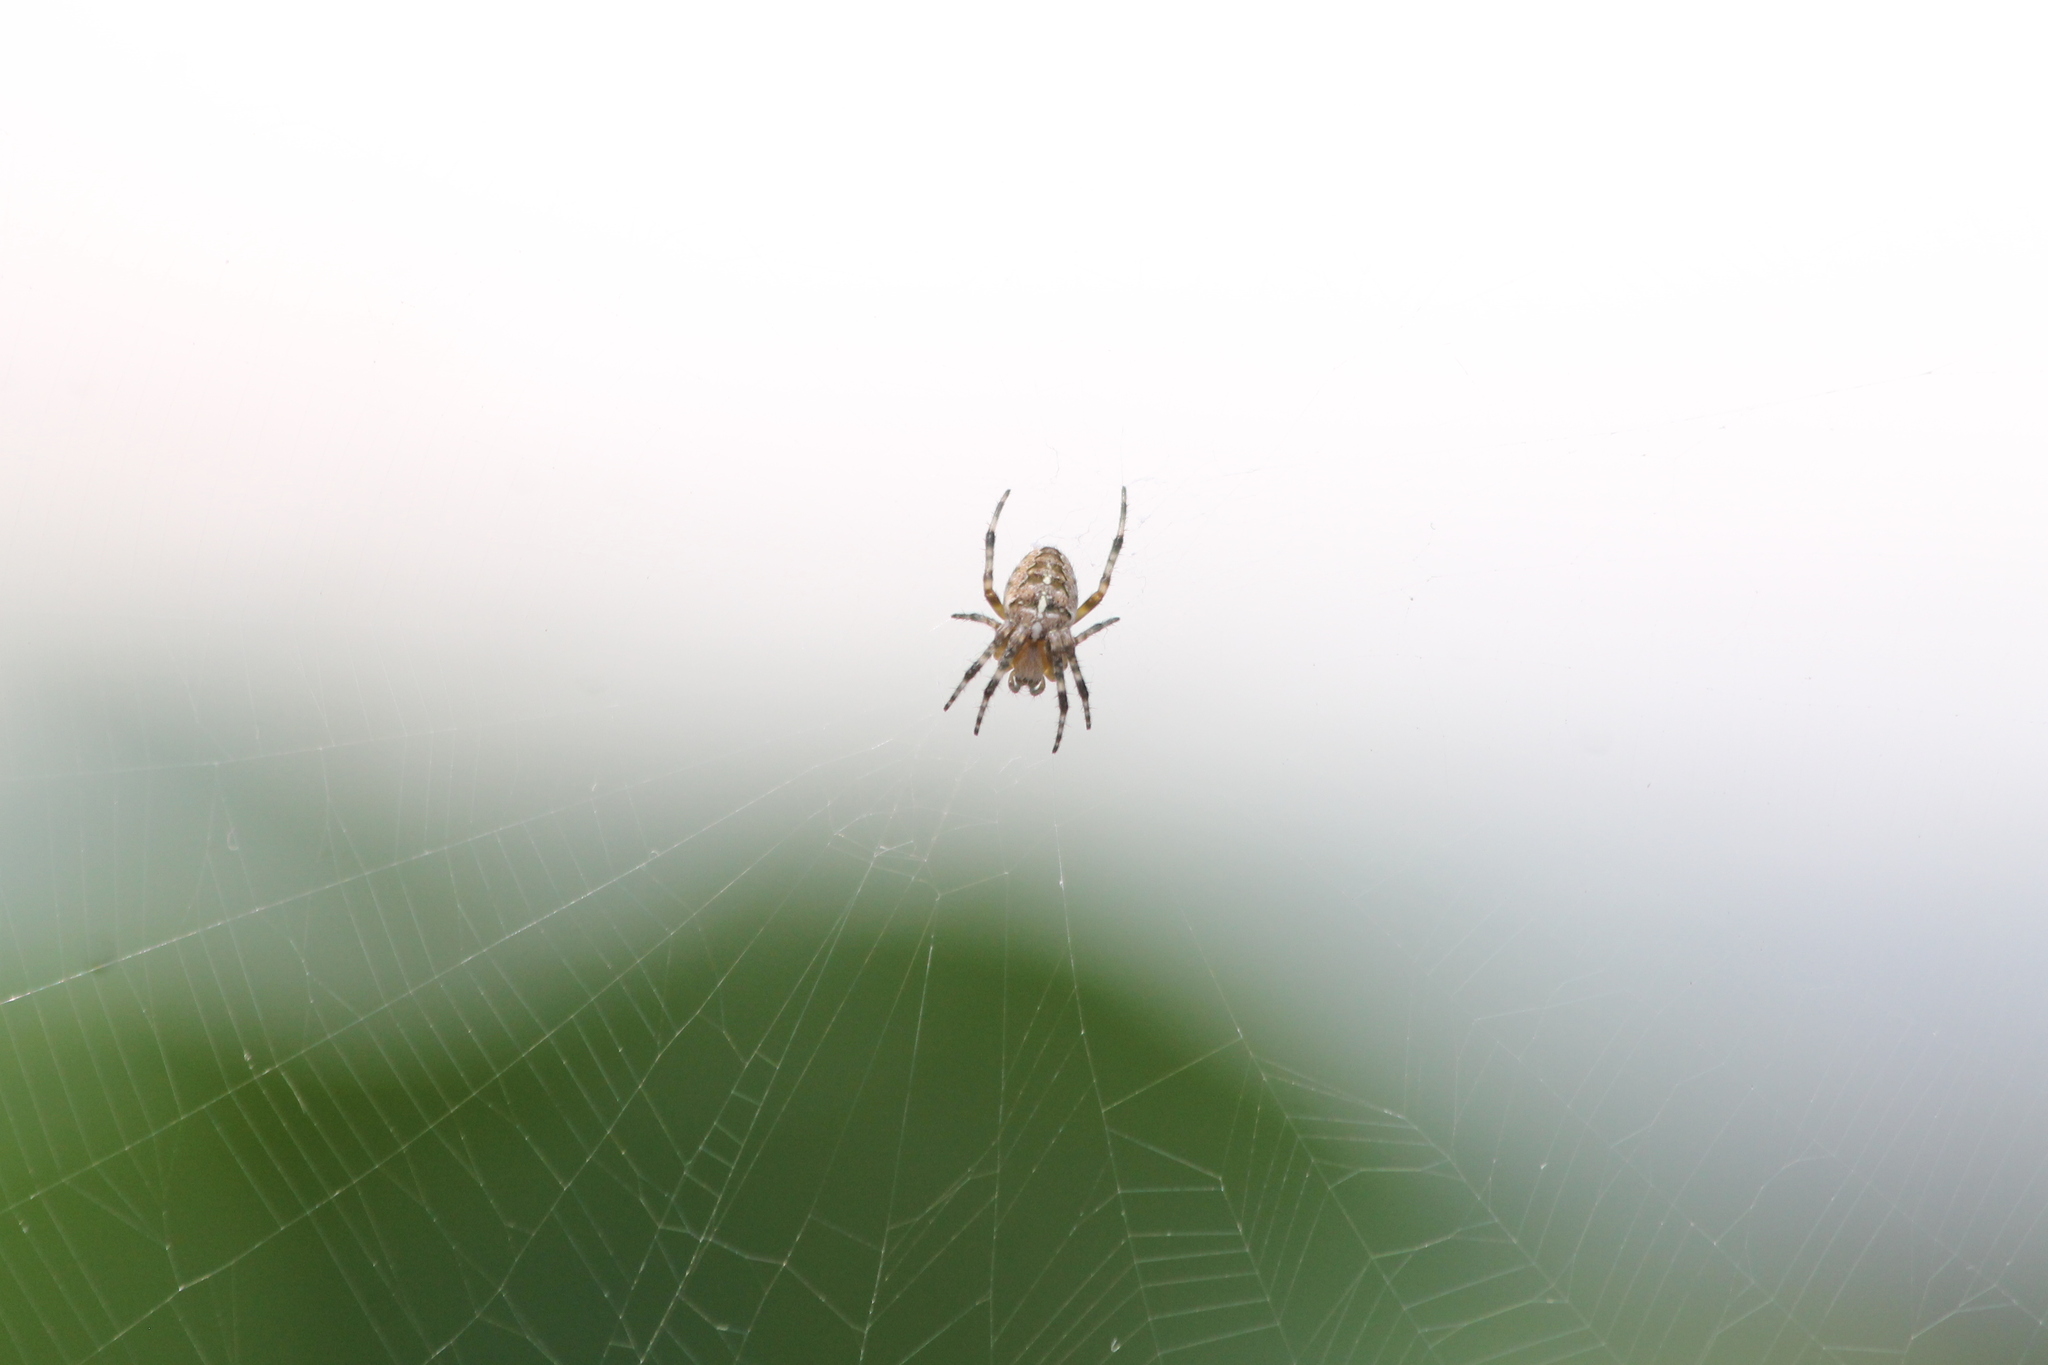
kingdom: Animalia
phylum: Arthropoda
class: Arachnida
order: Araneae
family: Araneidae
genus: Araneus
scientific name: Araneus diadematus
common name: Cross orbweaver
